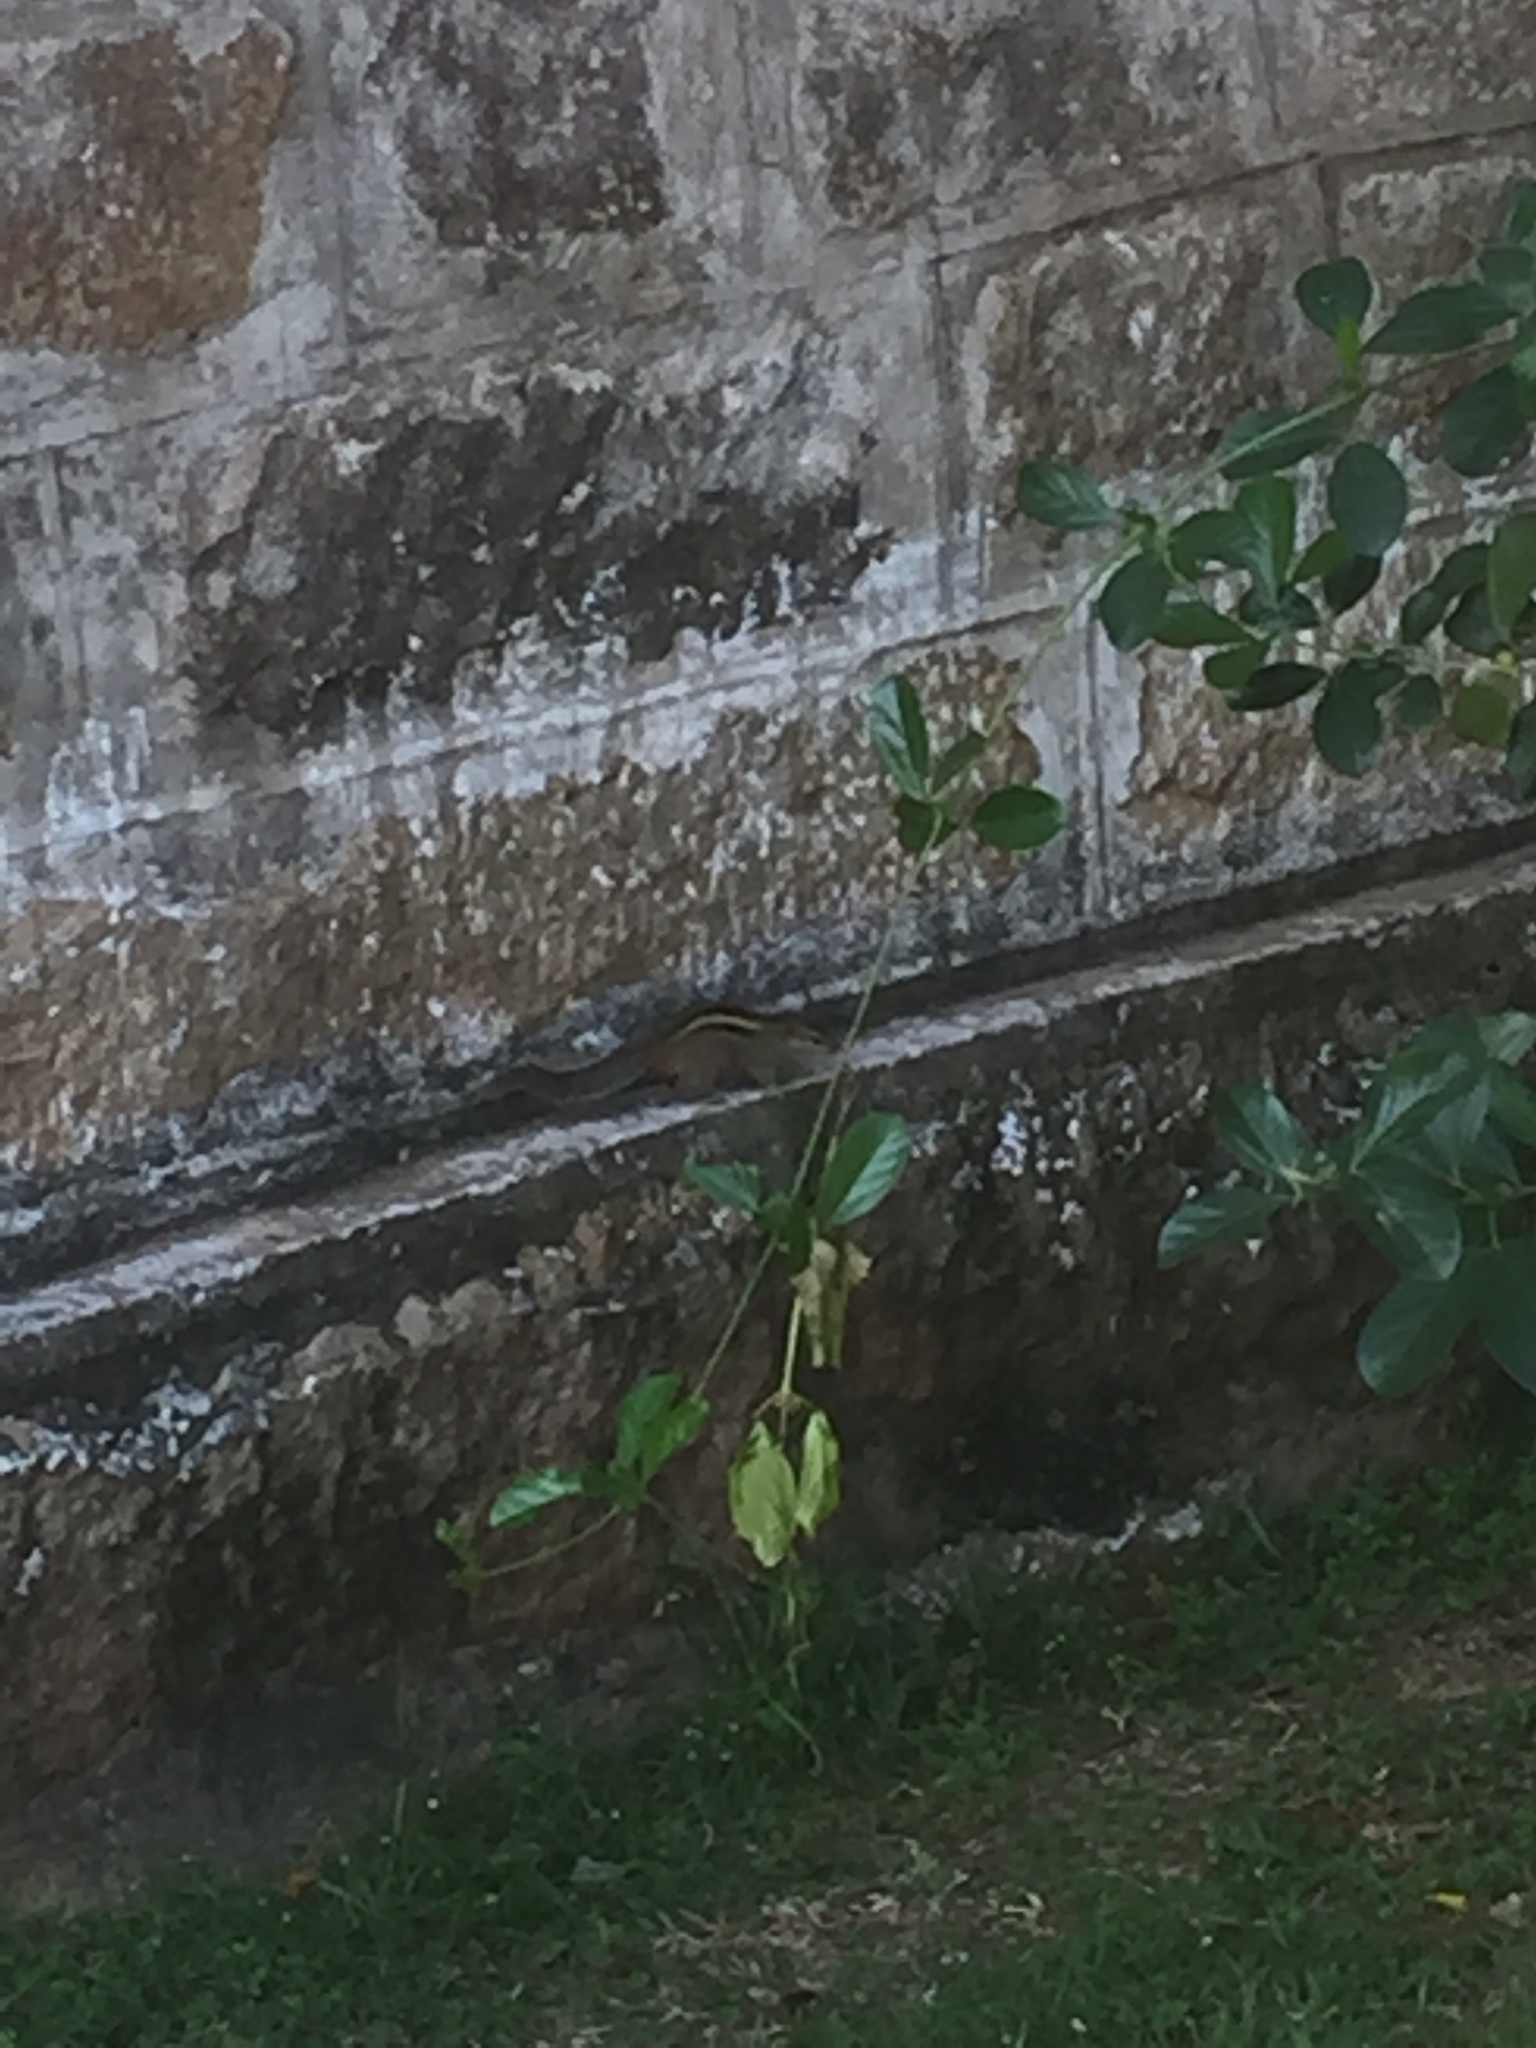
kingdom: Animalia
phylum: Chordata
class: Mammalia
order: Rodentia
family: Sciuridae
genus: Funambulus
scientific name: Funambulus palmarum
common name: Indian palm squirrel
